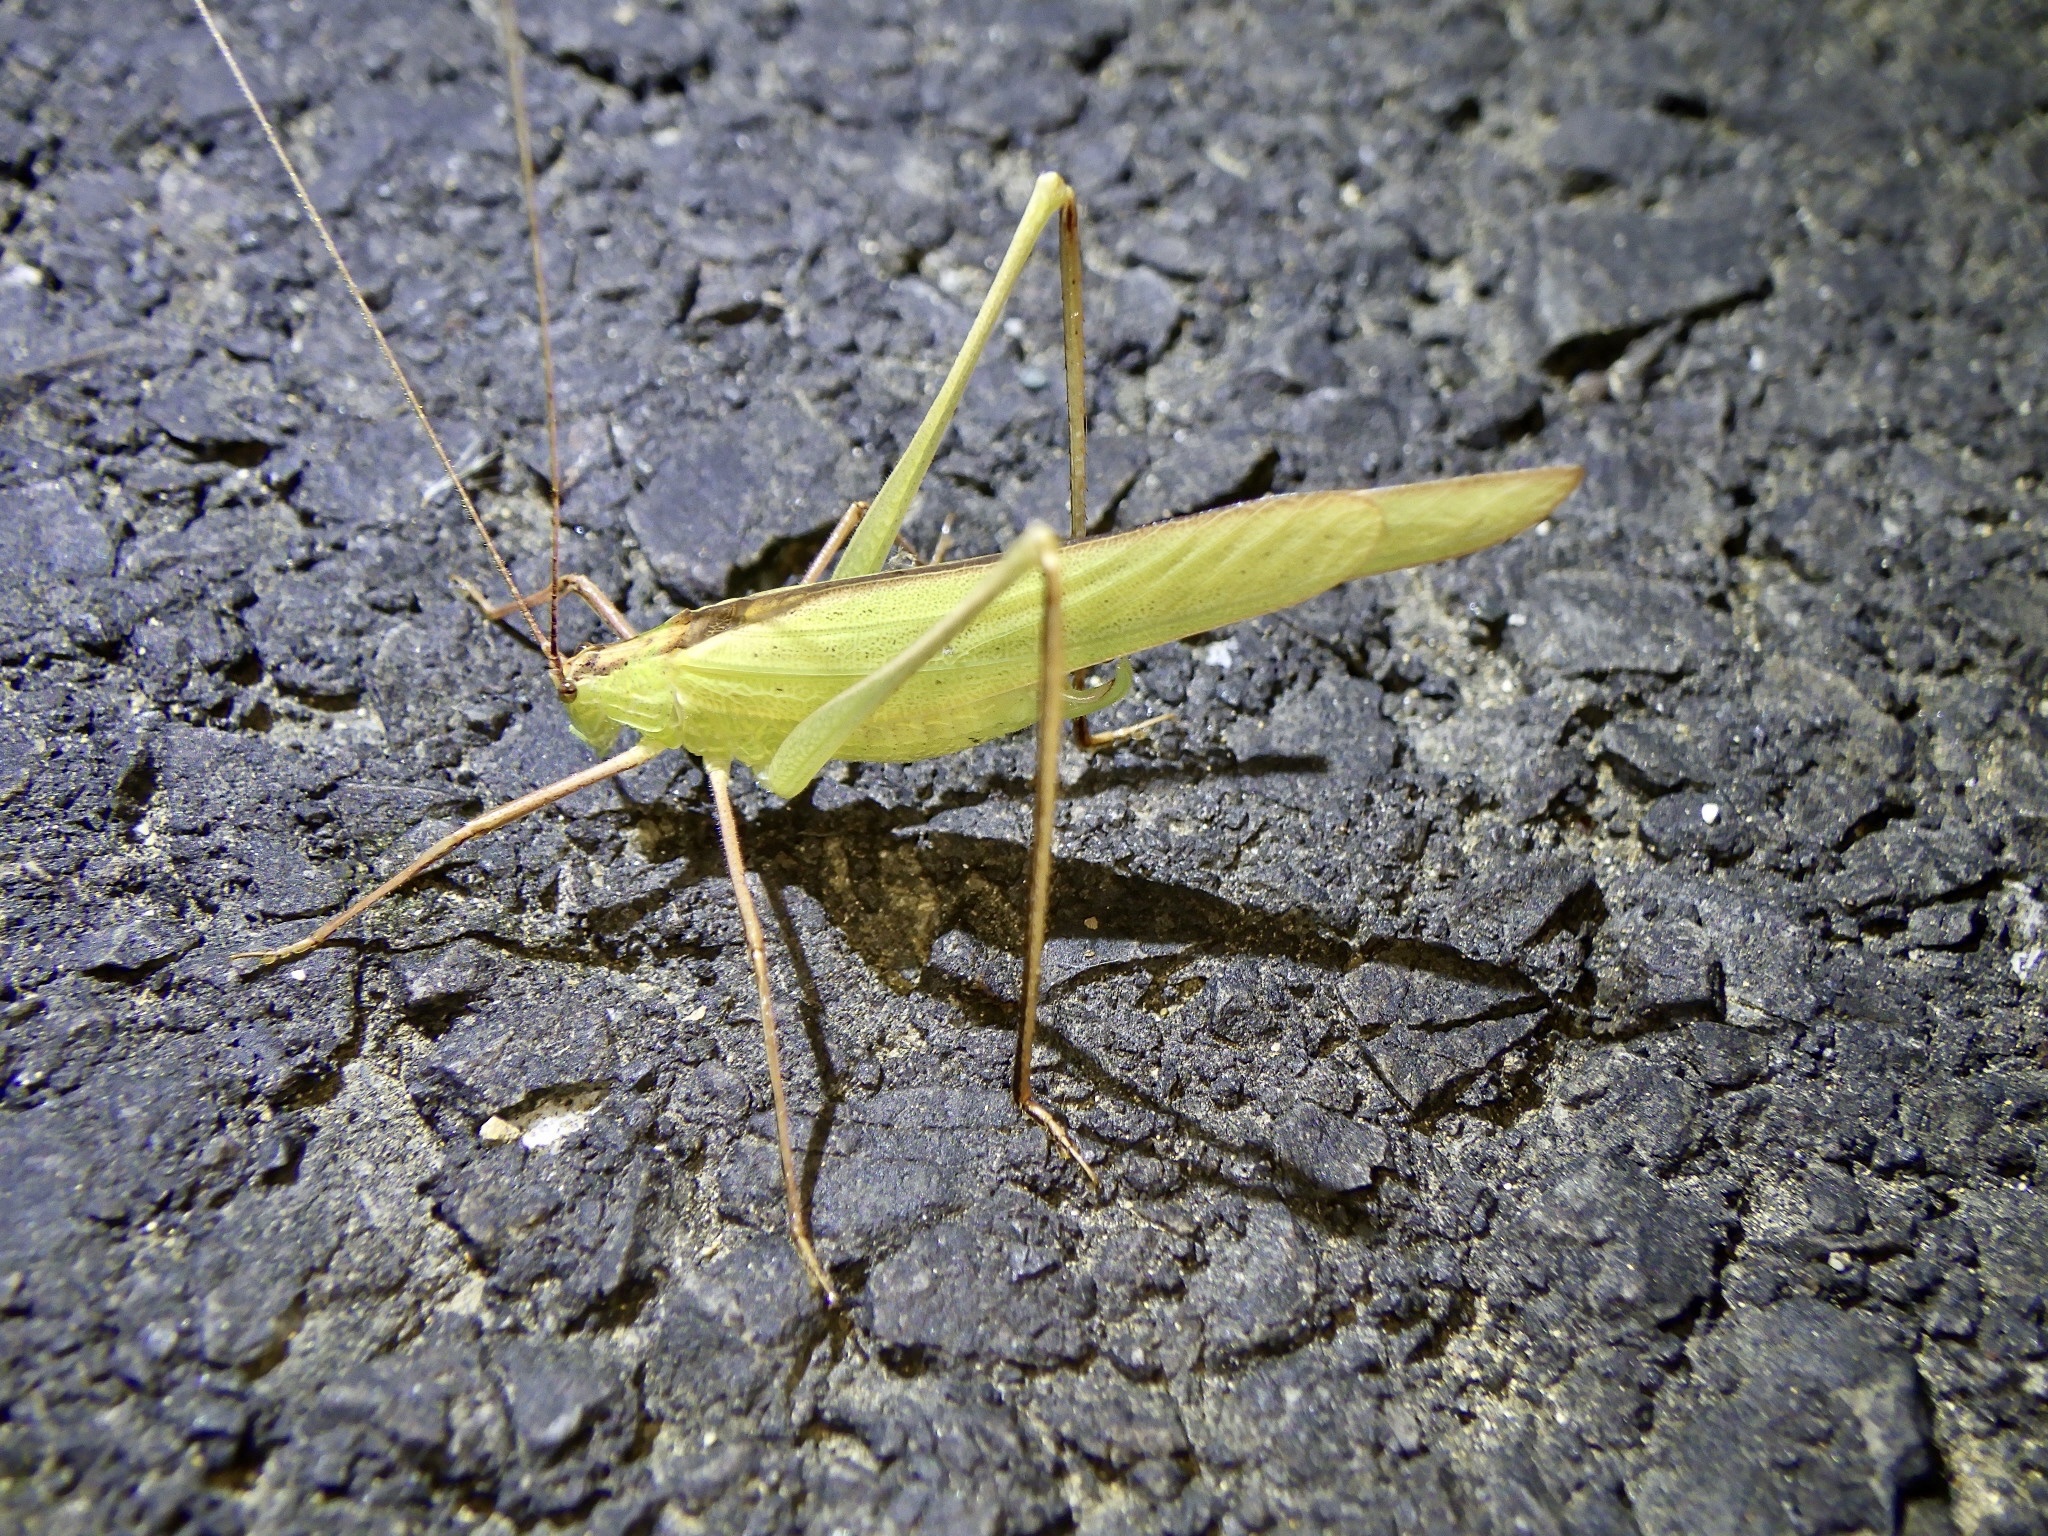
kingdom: Animalia
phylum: Arthropoda
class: Insecta
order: Orthoptera
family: Tettigoniidae
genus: Ducetia
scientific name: Ducetia japonica
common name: Pacific ducetia
